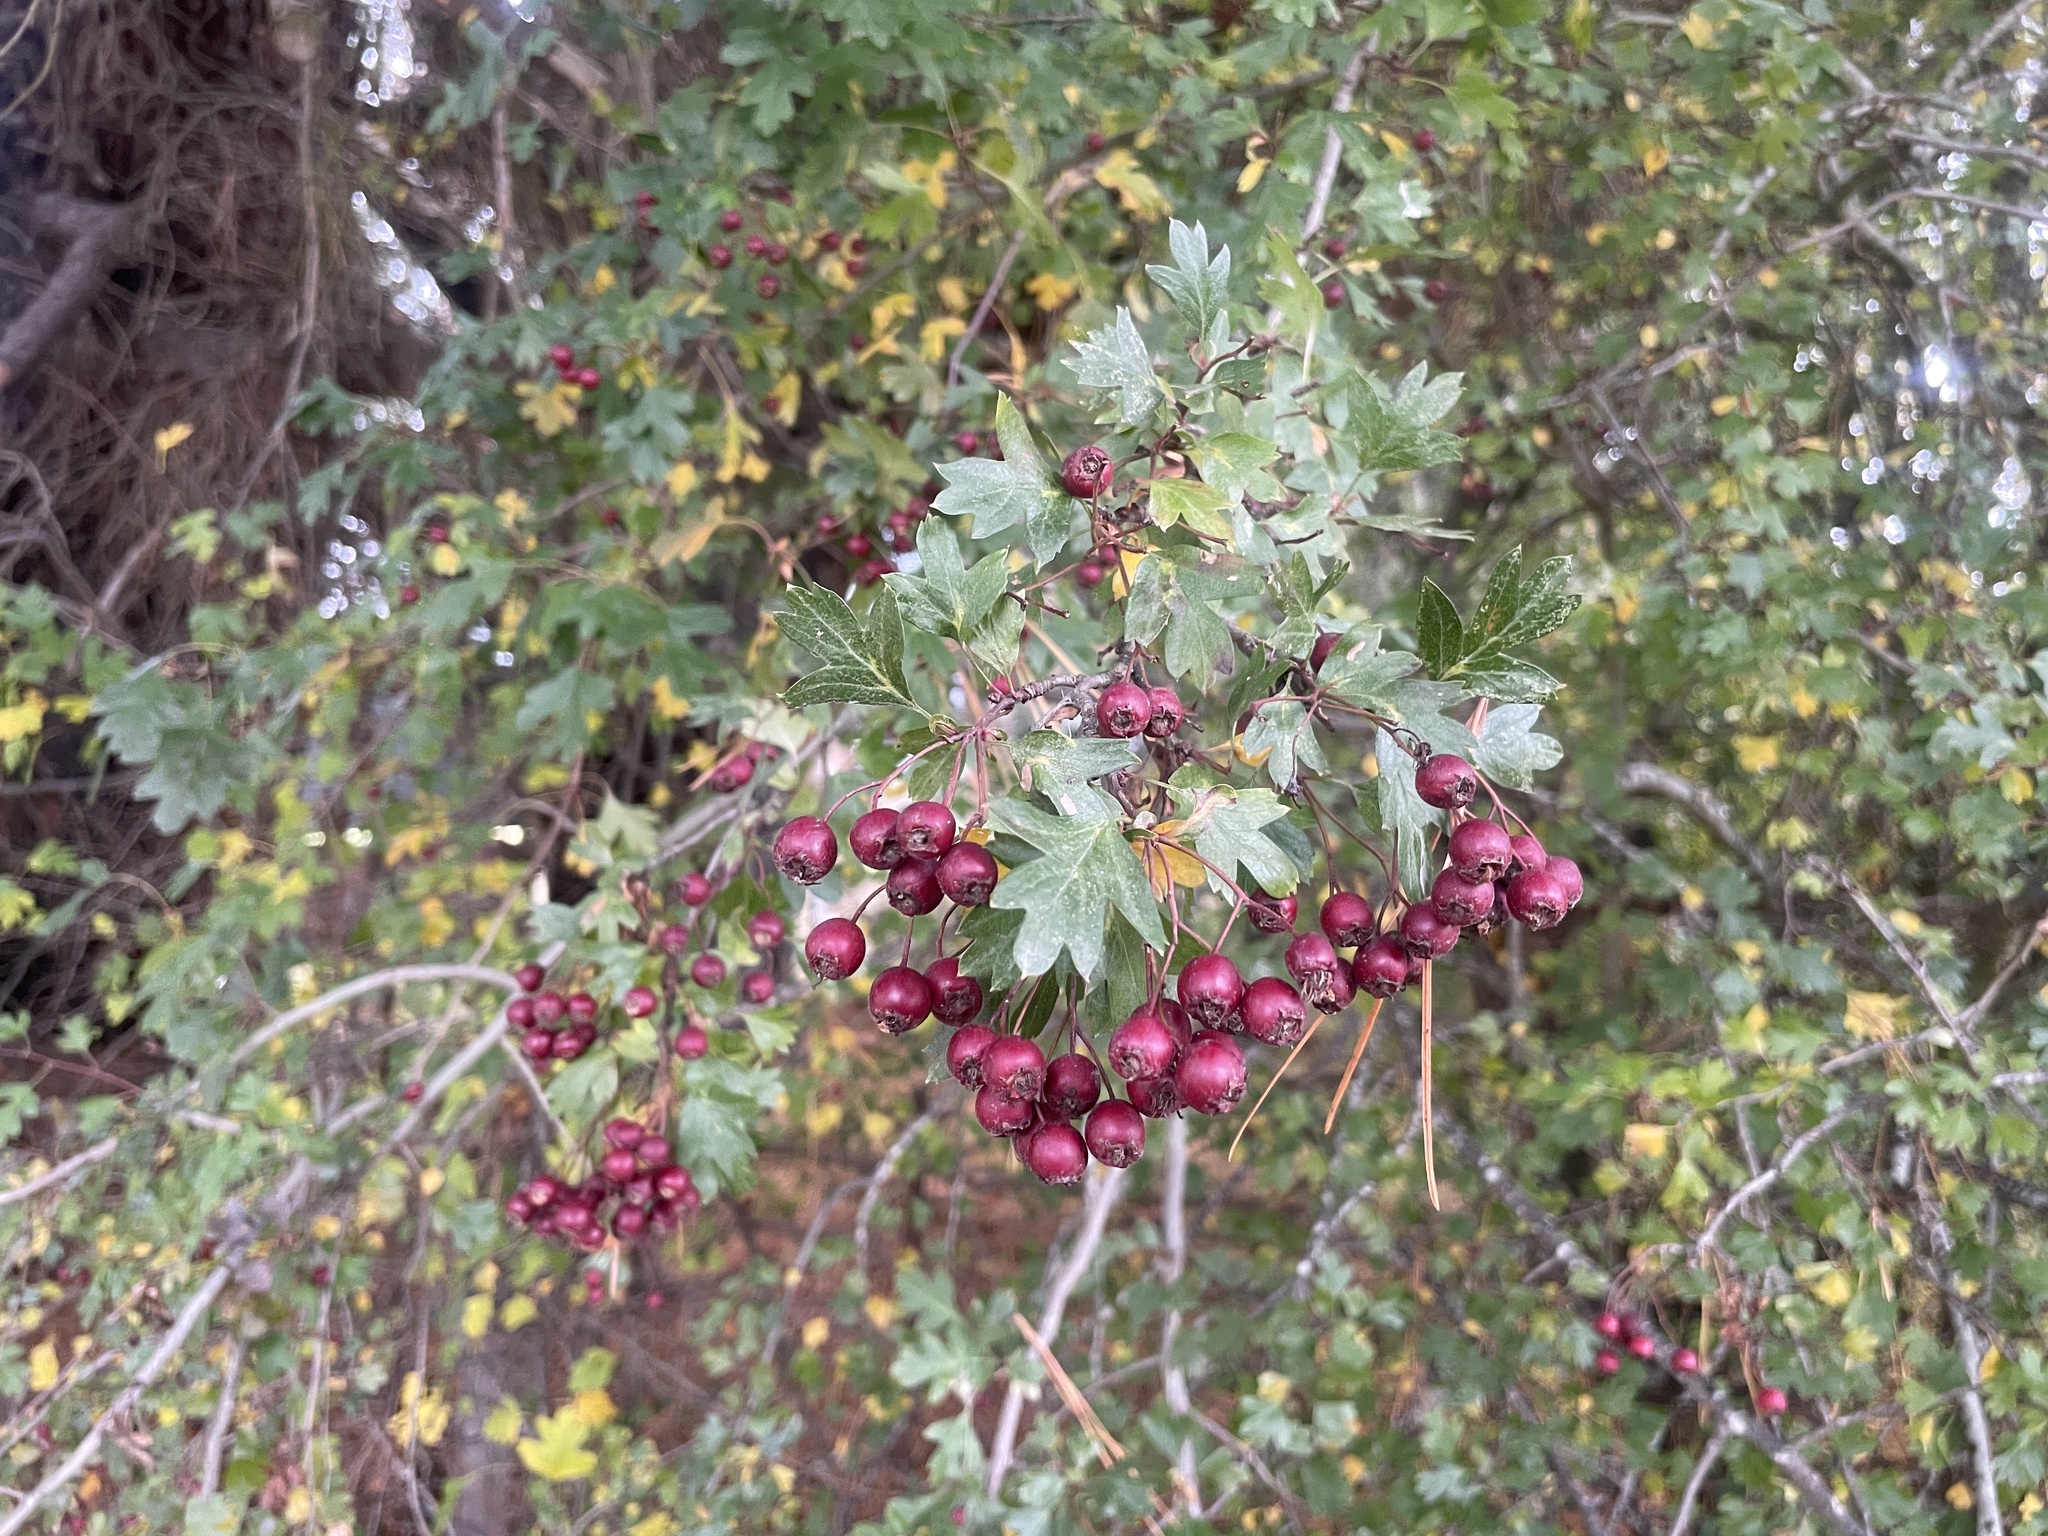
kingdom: Plantae
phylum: Tracheophyta
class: Magnoliopsida
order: Rosales
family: Rosaceae
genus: Crataegus
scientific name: Crataegus monogyna
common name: Hawthorn
